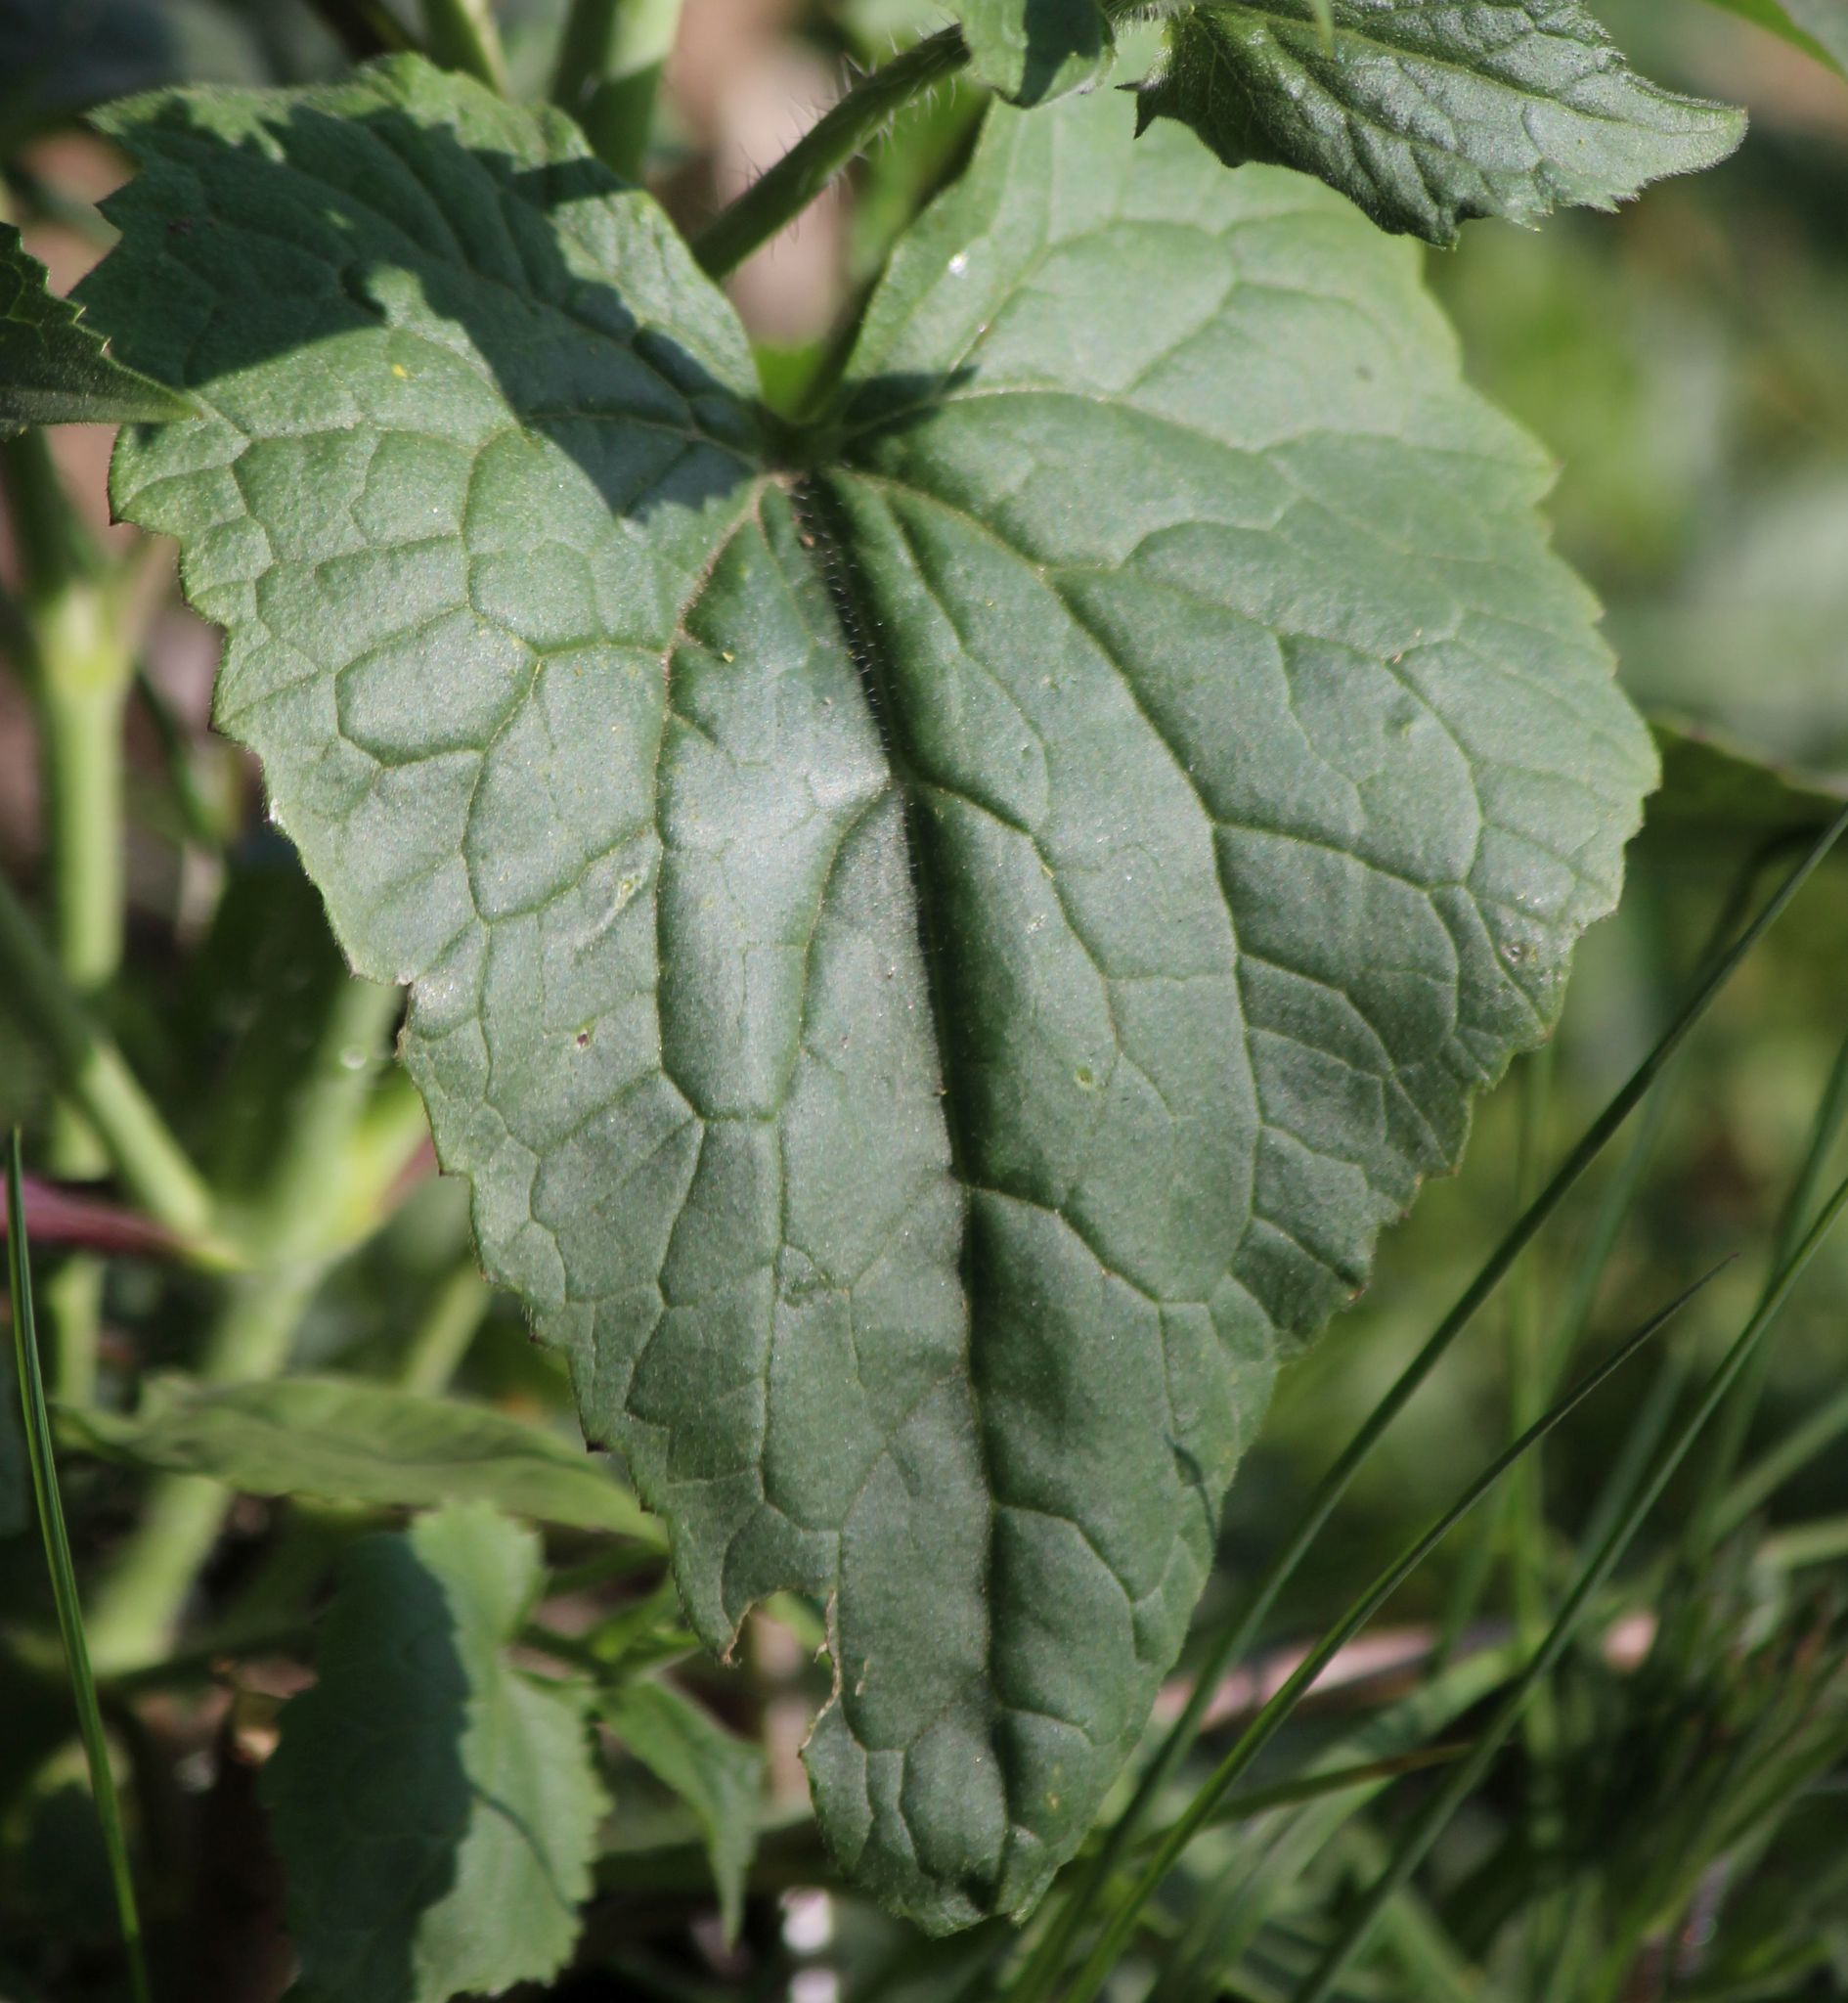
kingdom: Plantae
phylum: Tracheophyta
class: Magnoliopsida
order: Brassicales
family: Brassicaceae
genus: Lunaria
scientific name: Lunaria annua
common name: Honesty
